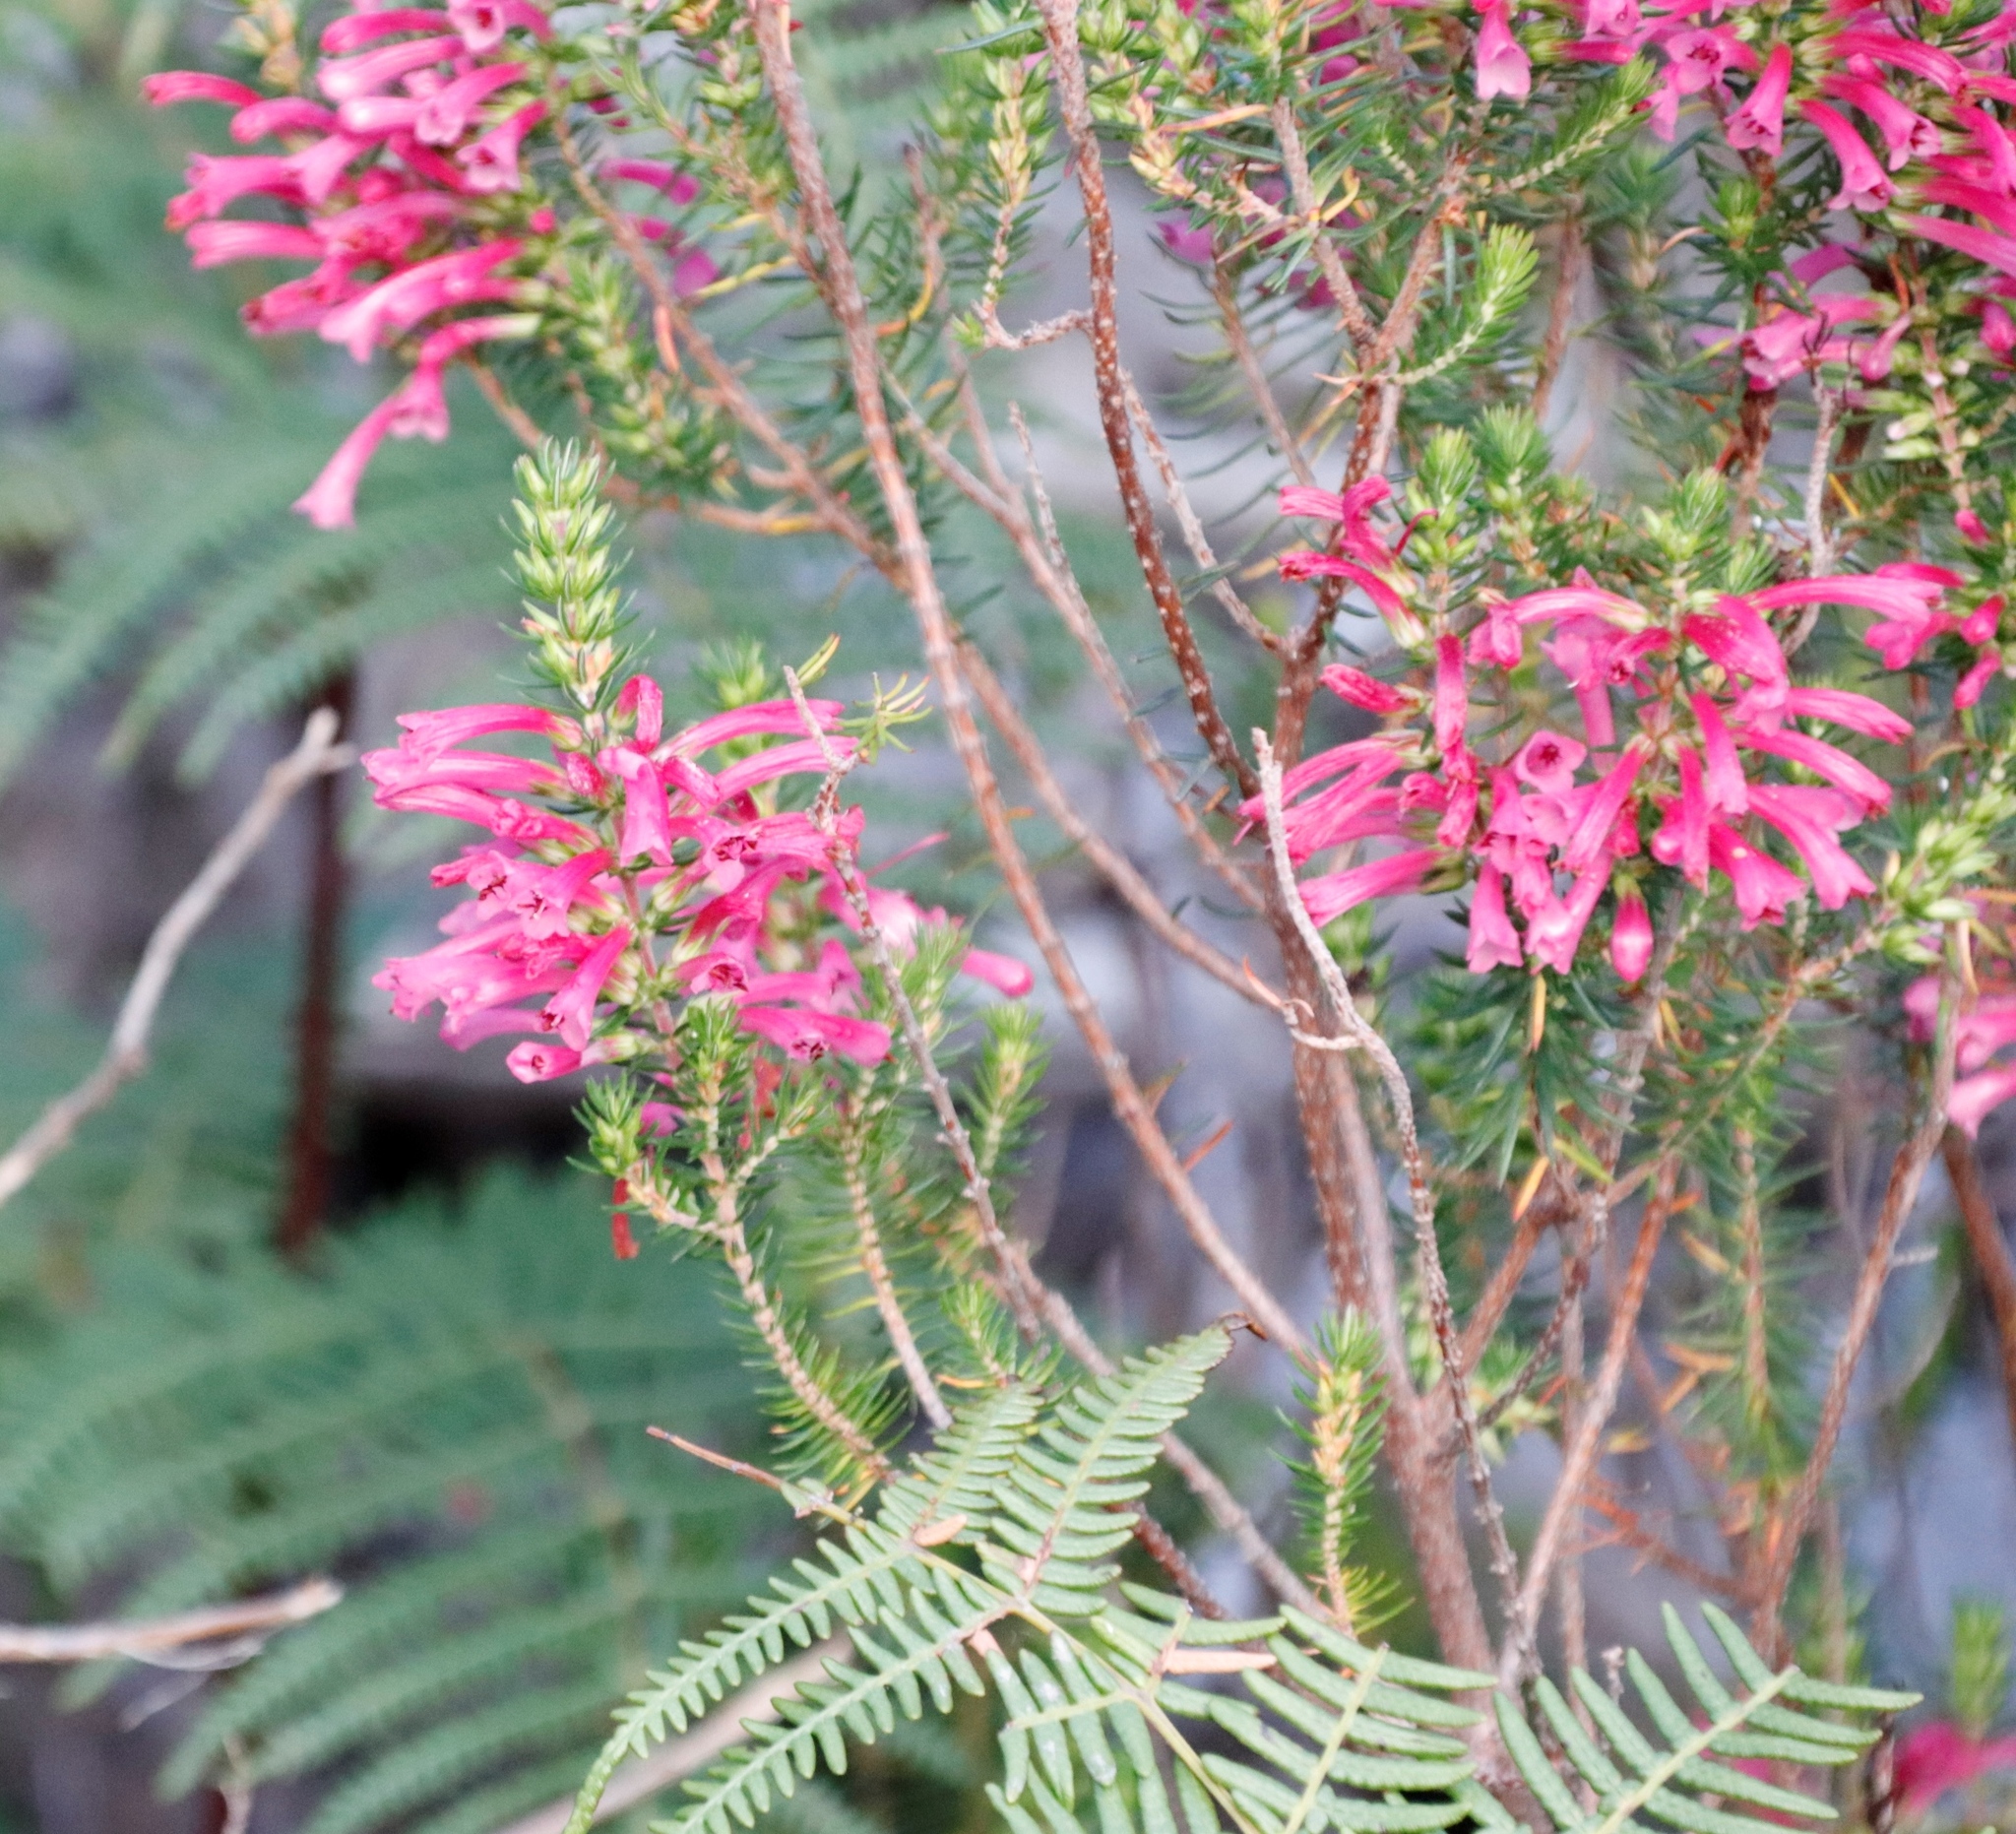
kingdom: Plantae
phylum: Tracheophyta
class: Magnoliopsida
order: Ericales
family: Ericaceae
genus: Erica
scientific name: Erica abietina
